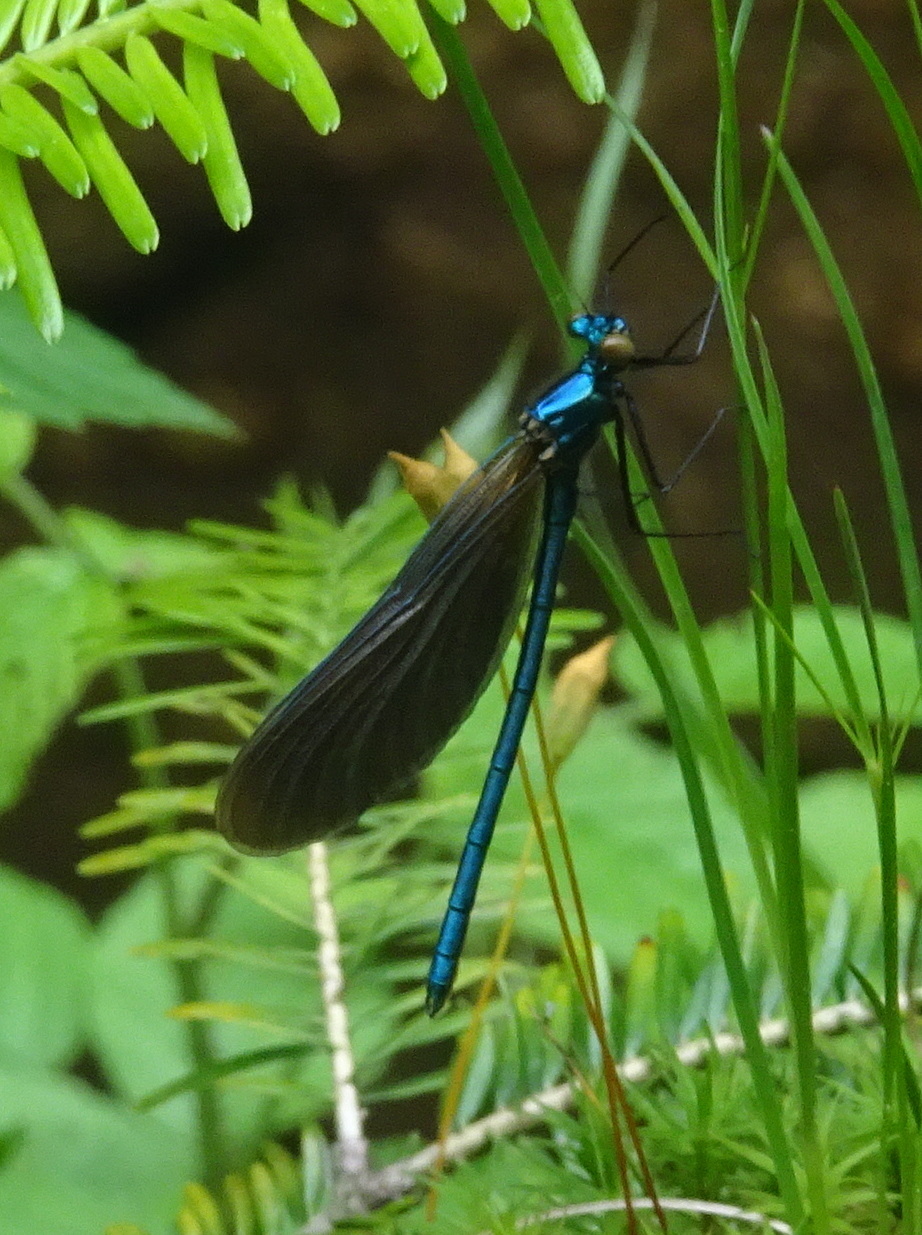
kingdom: Animalia
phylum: Arthropoda
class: Insecta
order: Odonata
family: Calopterygidae
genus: Calopteryx
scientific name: Calopteryx virgo
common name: Beautiful demoiselle
